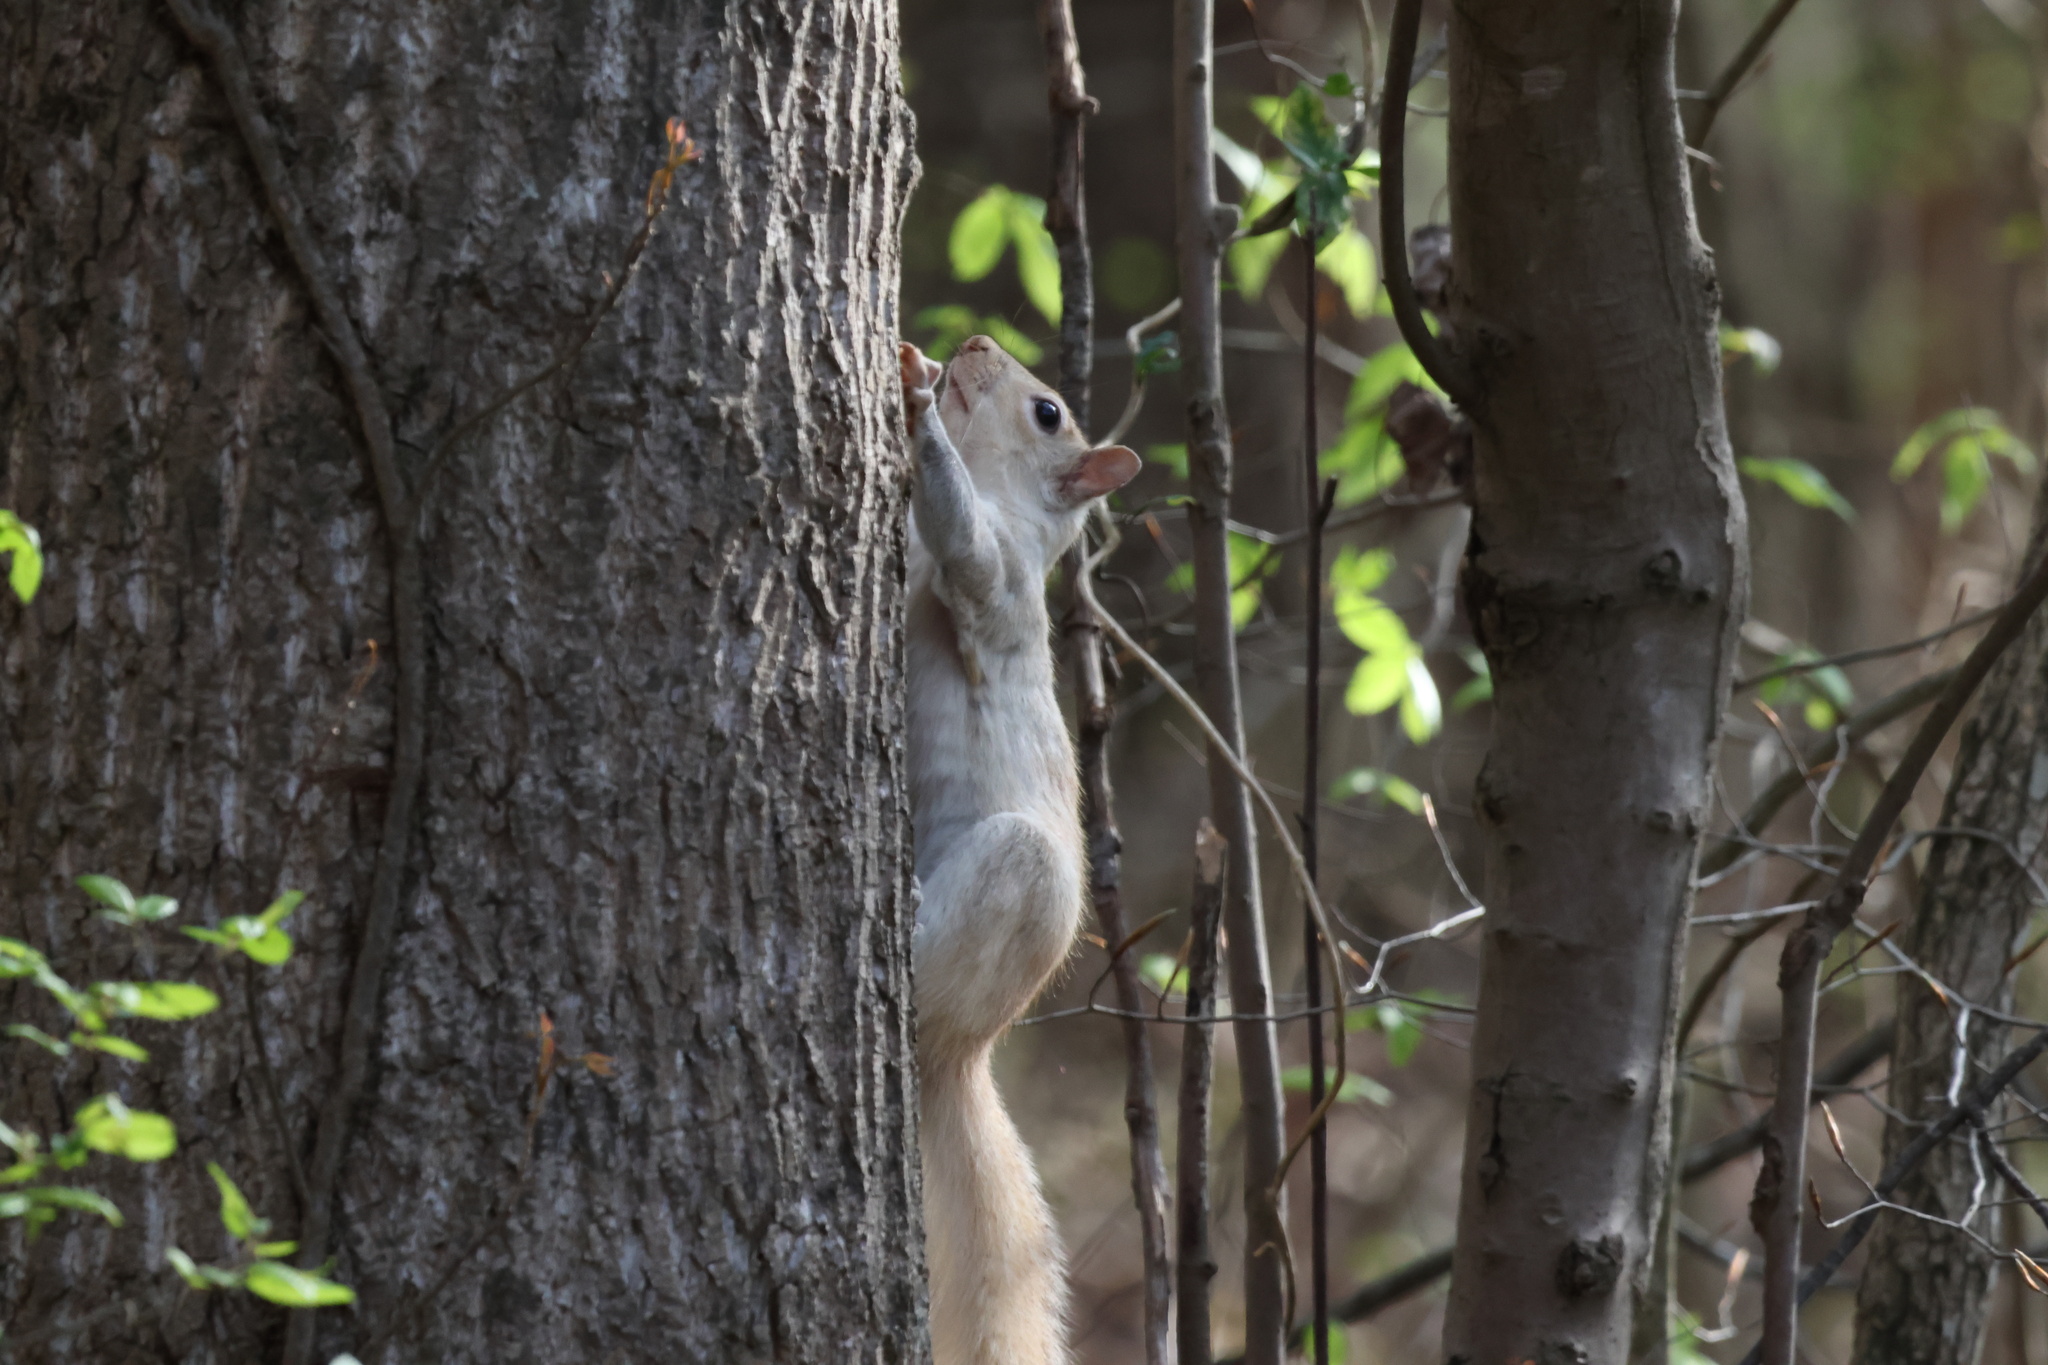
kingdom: Animalia
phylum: Chordata
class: Mammalia
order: Rodentia
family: Sciuridae
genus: Sciurus
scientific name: Sciurus carolinensis
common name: Eastern gray squirrel
